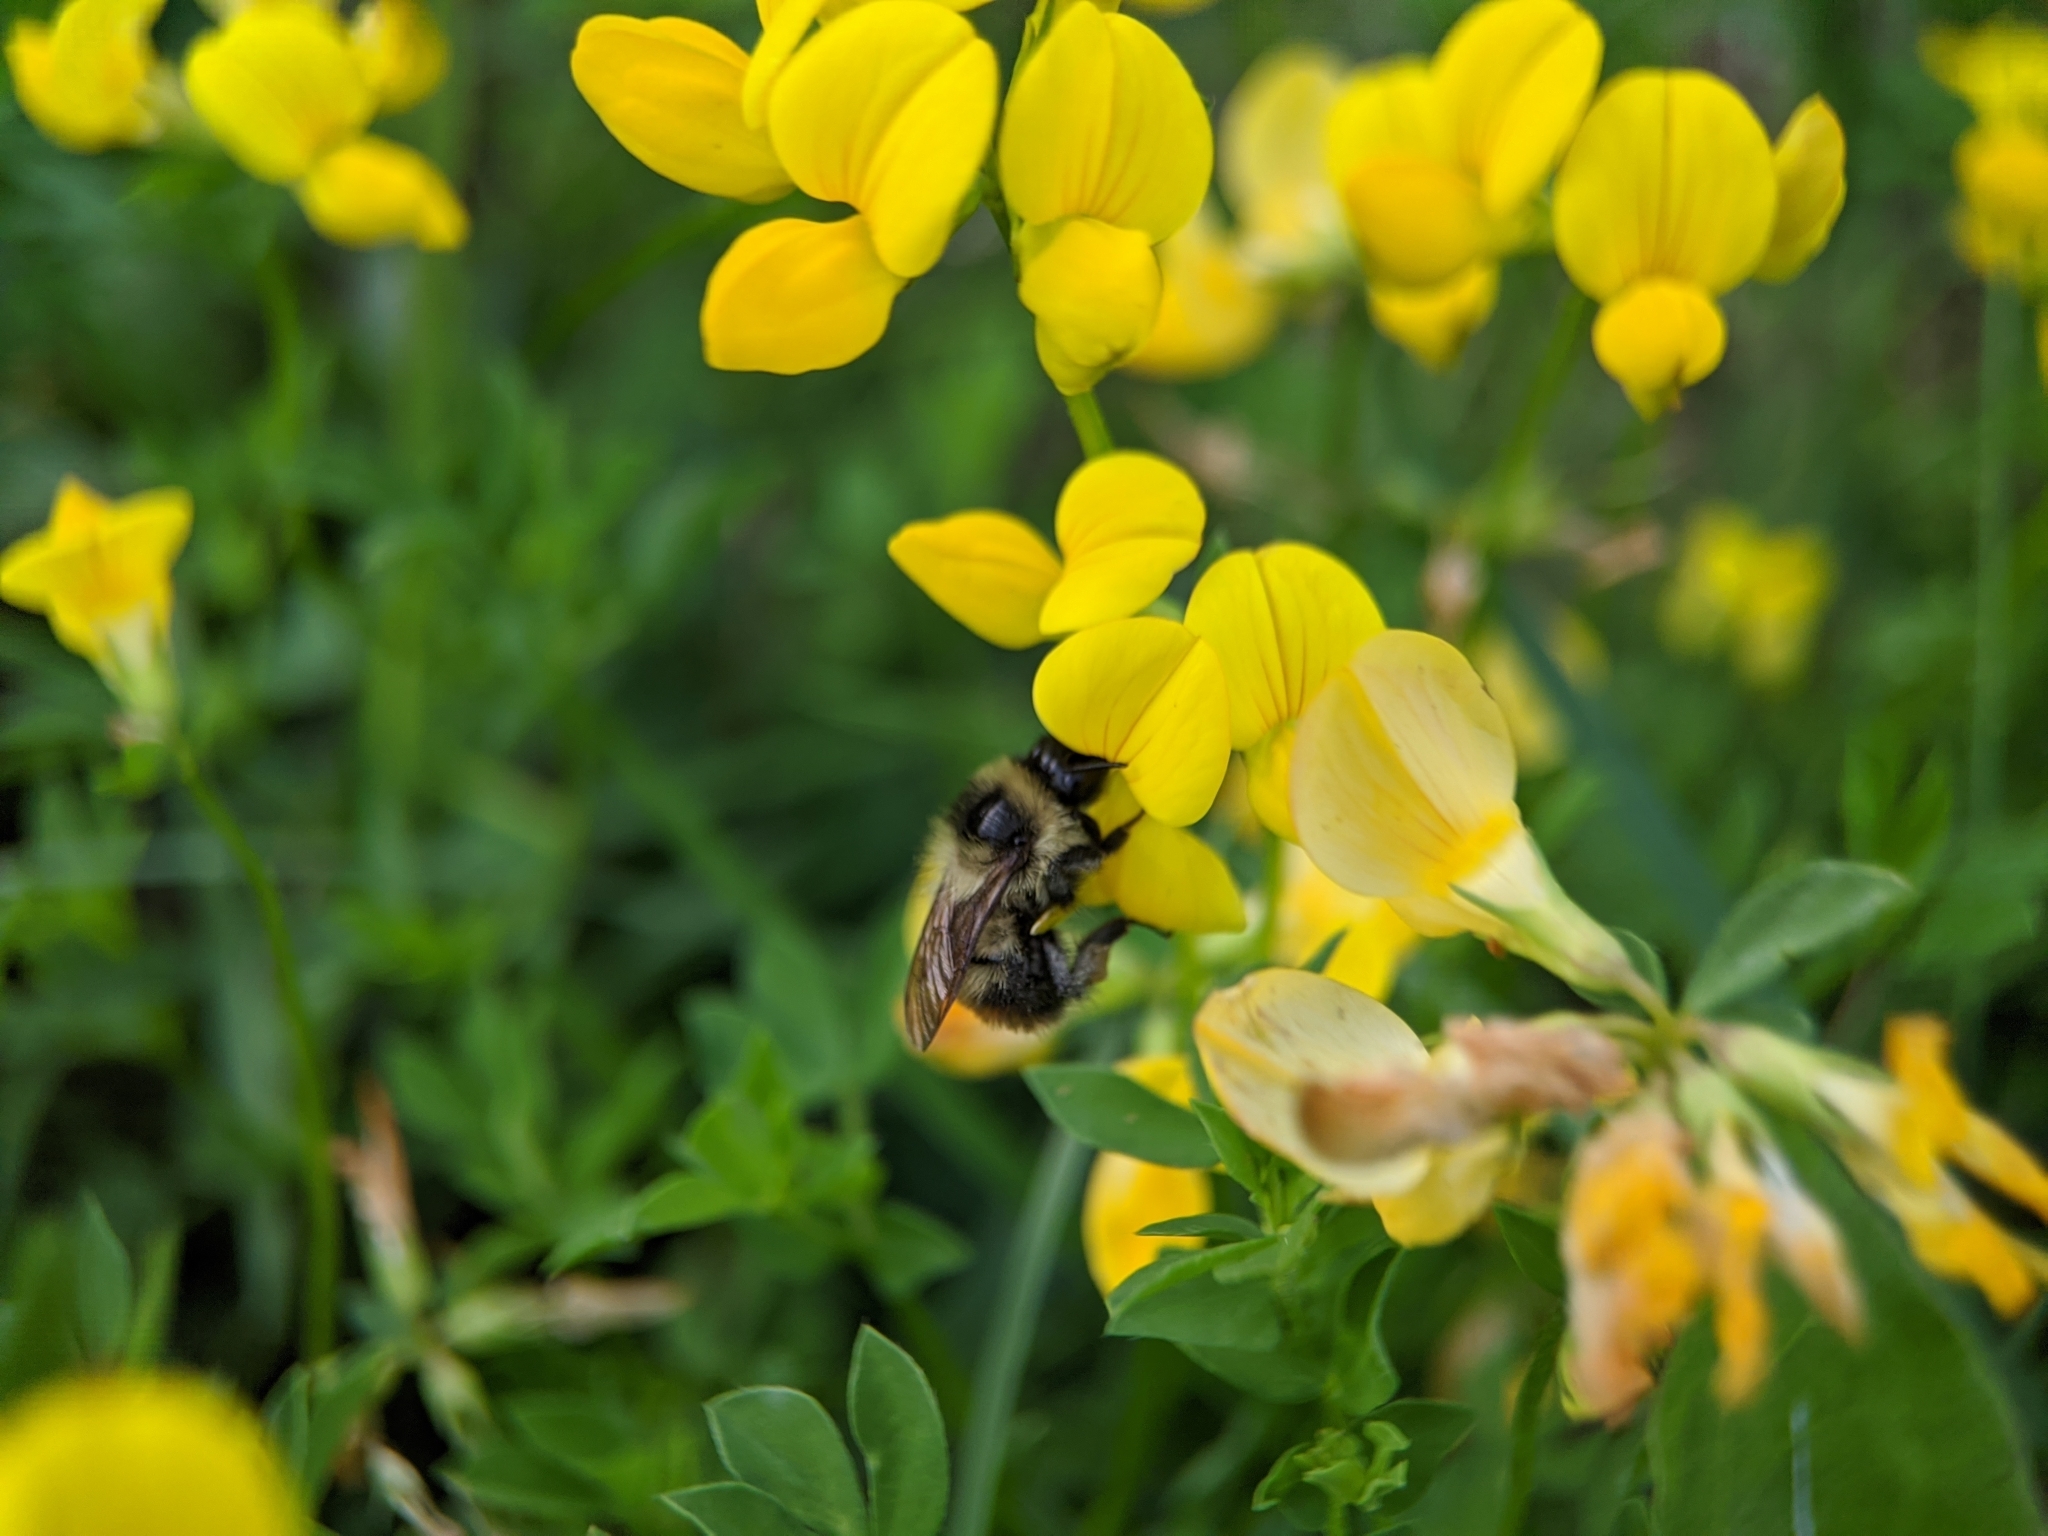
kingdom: Animalia
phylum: Arthropoda
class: Insecta
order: Hymenoptera
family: Apidae
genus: Bombus
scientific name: Bombus rufocinctus
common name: Red-belted bumble bee
